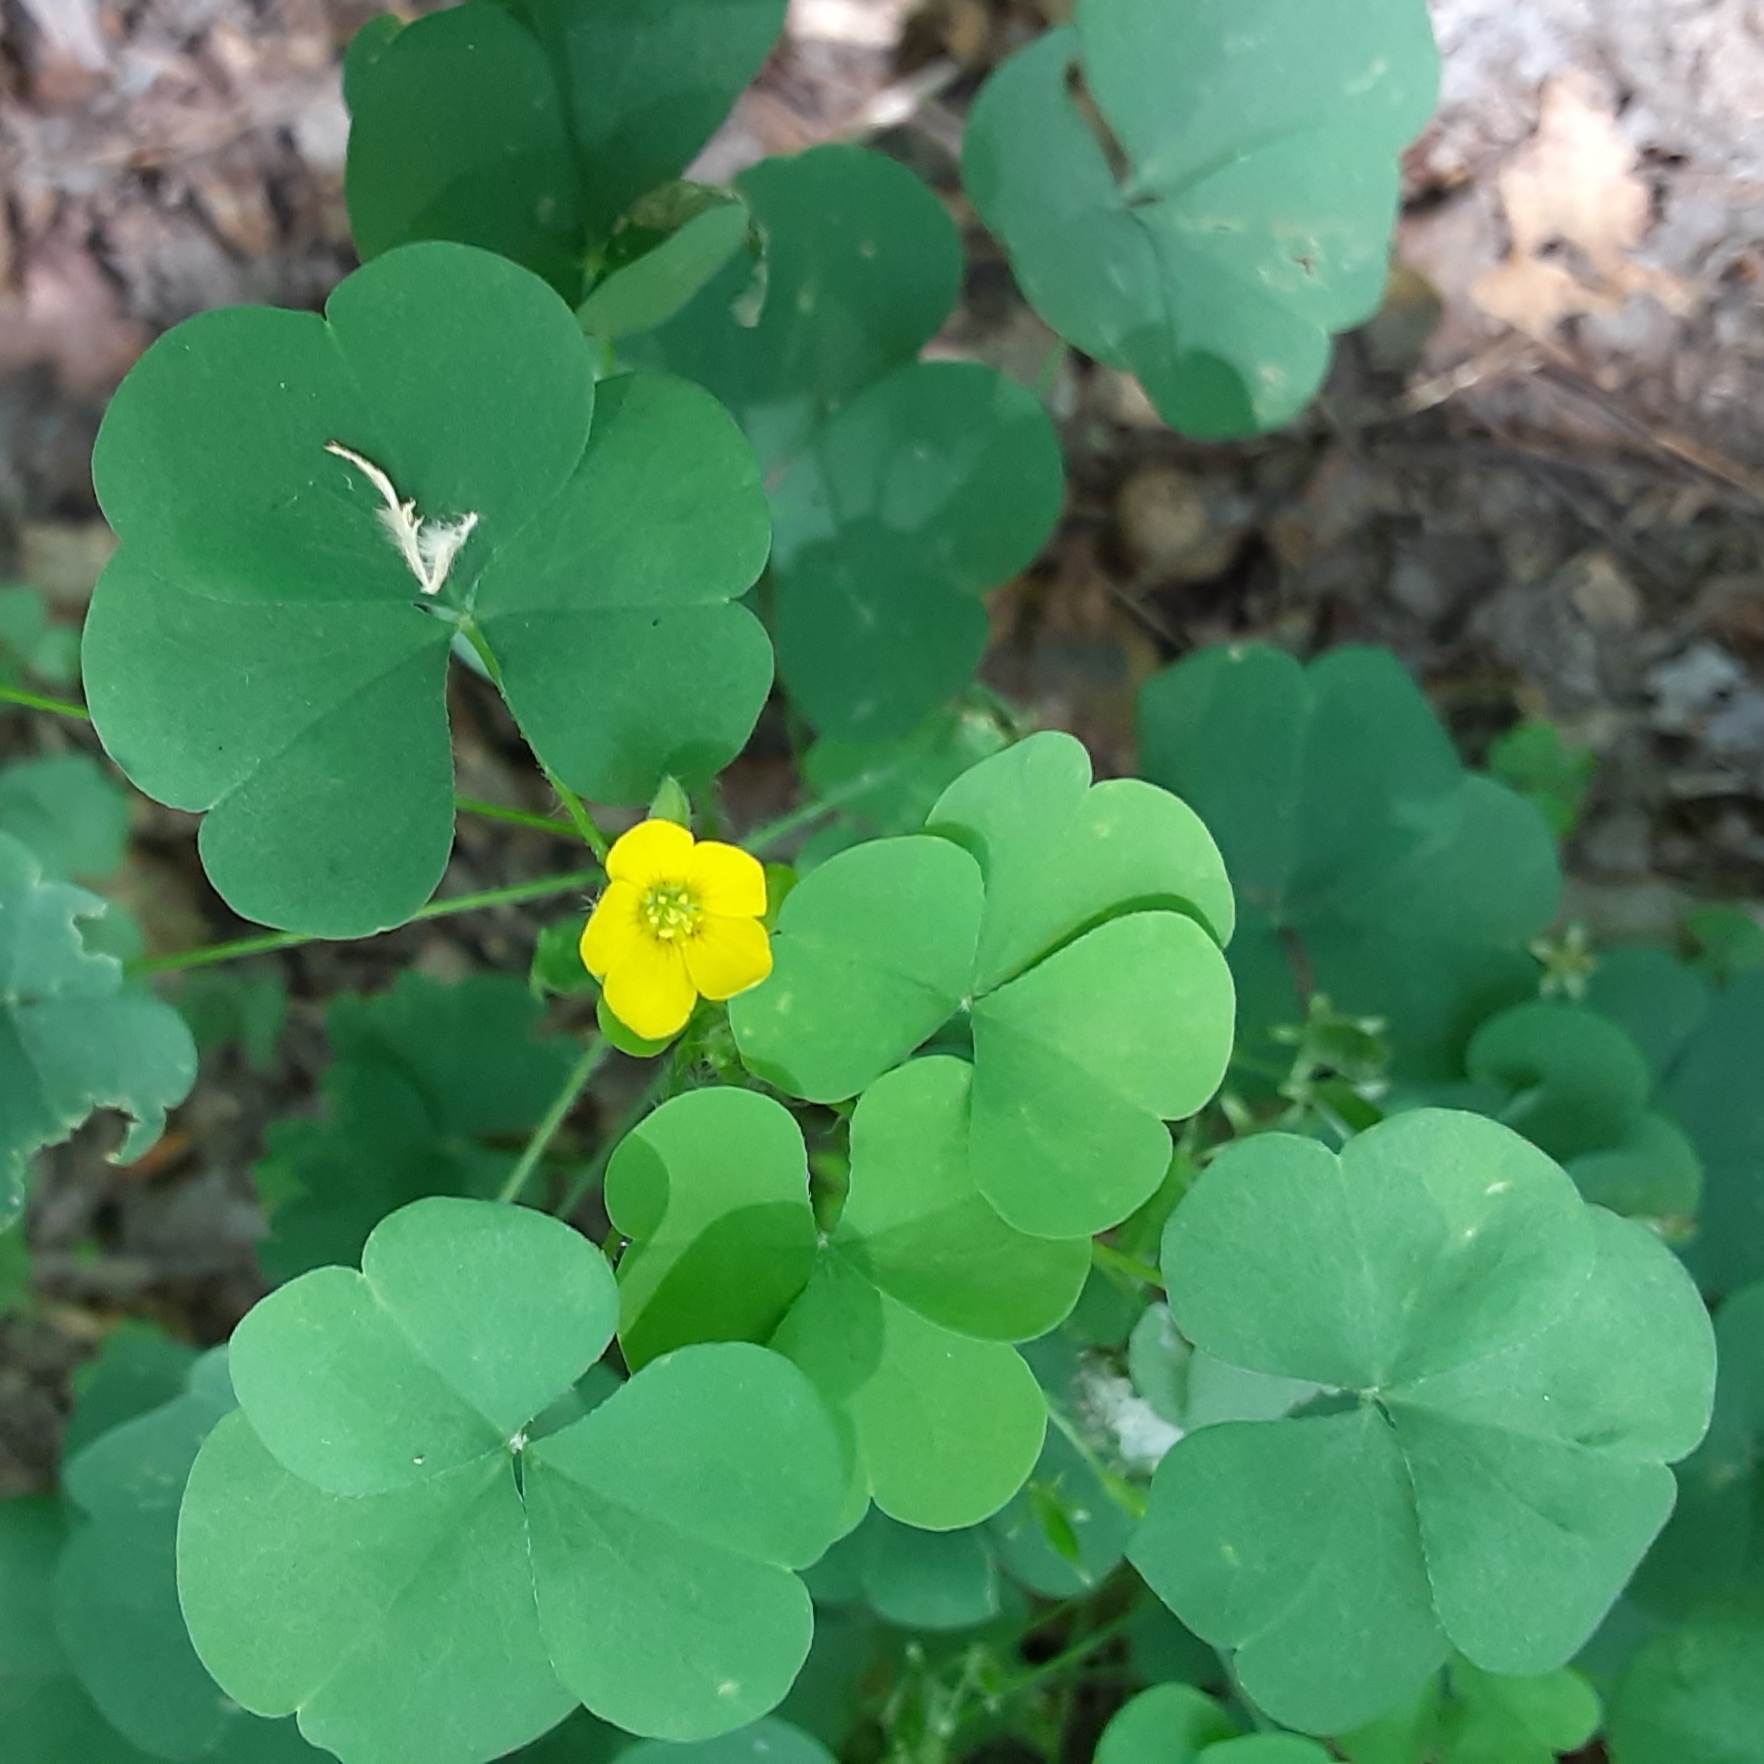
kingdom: Plantae
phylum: Tracheophyta
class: Magnoliopsida
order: Oxalidales
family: Oxalidaceae
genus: Oxalis
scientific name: Oxalis stricta
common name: Upright yellow-sorrel
